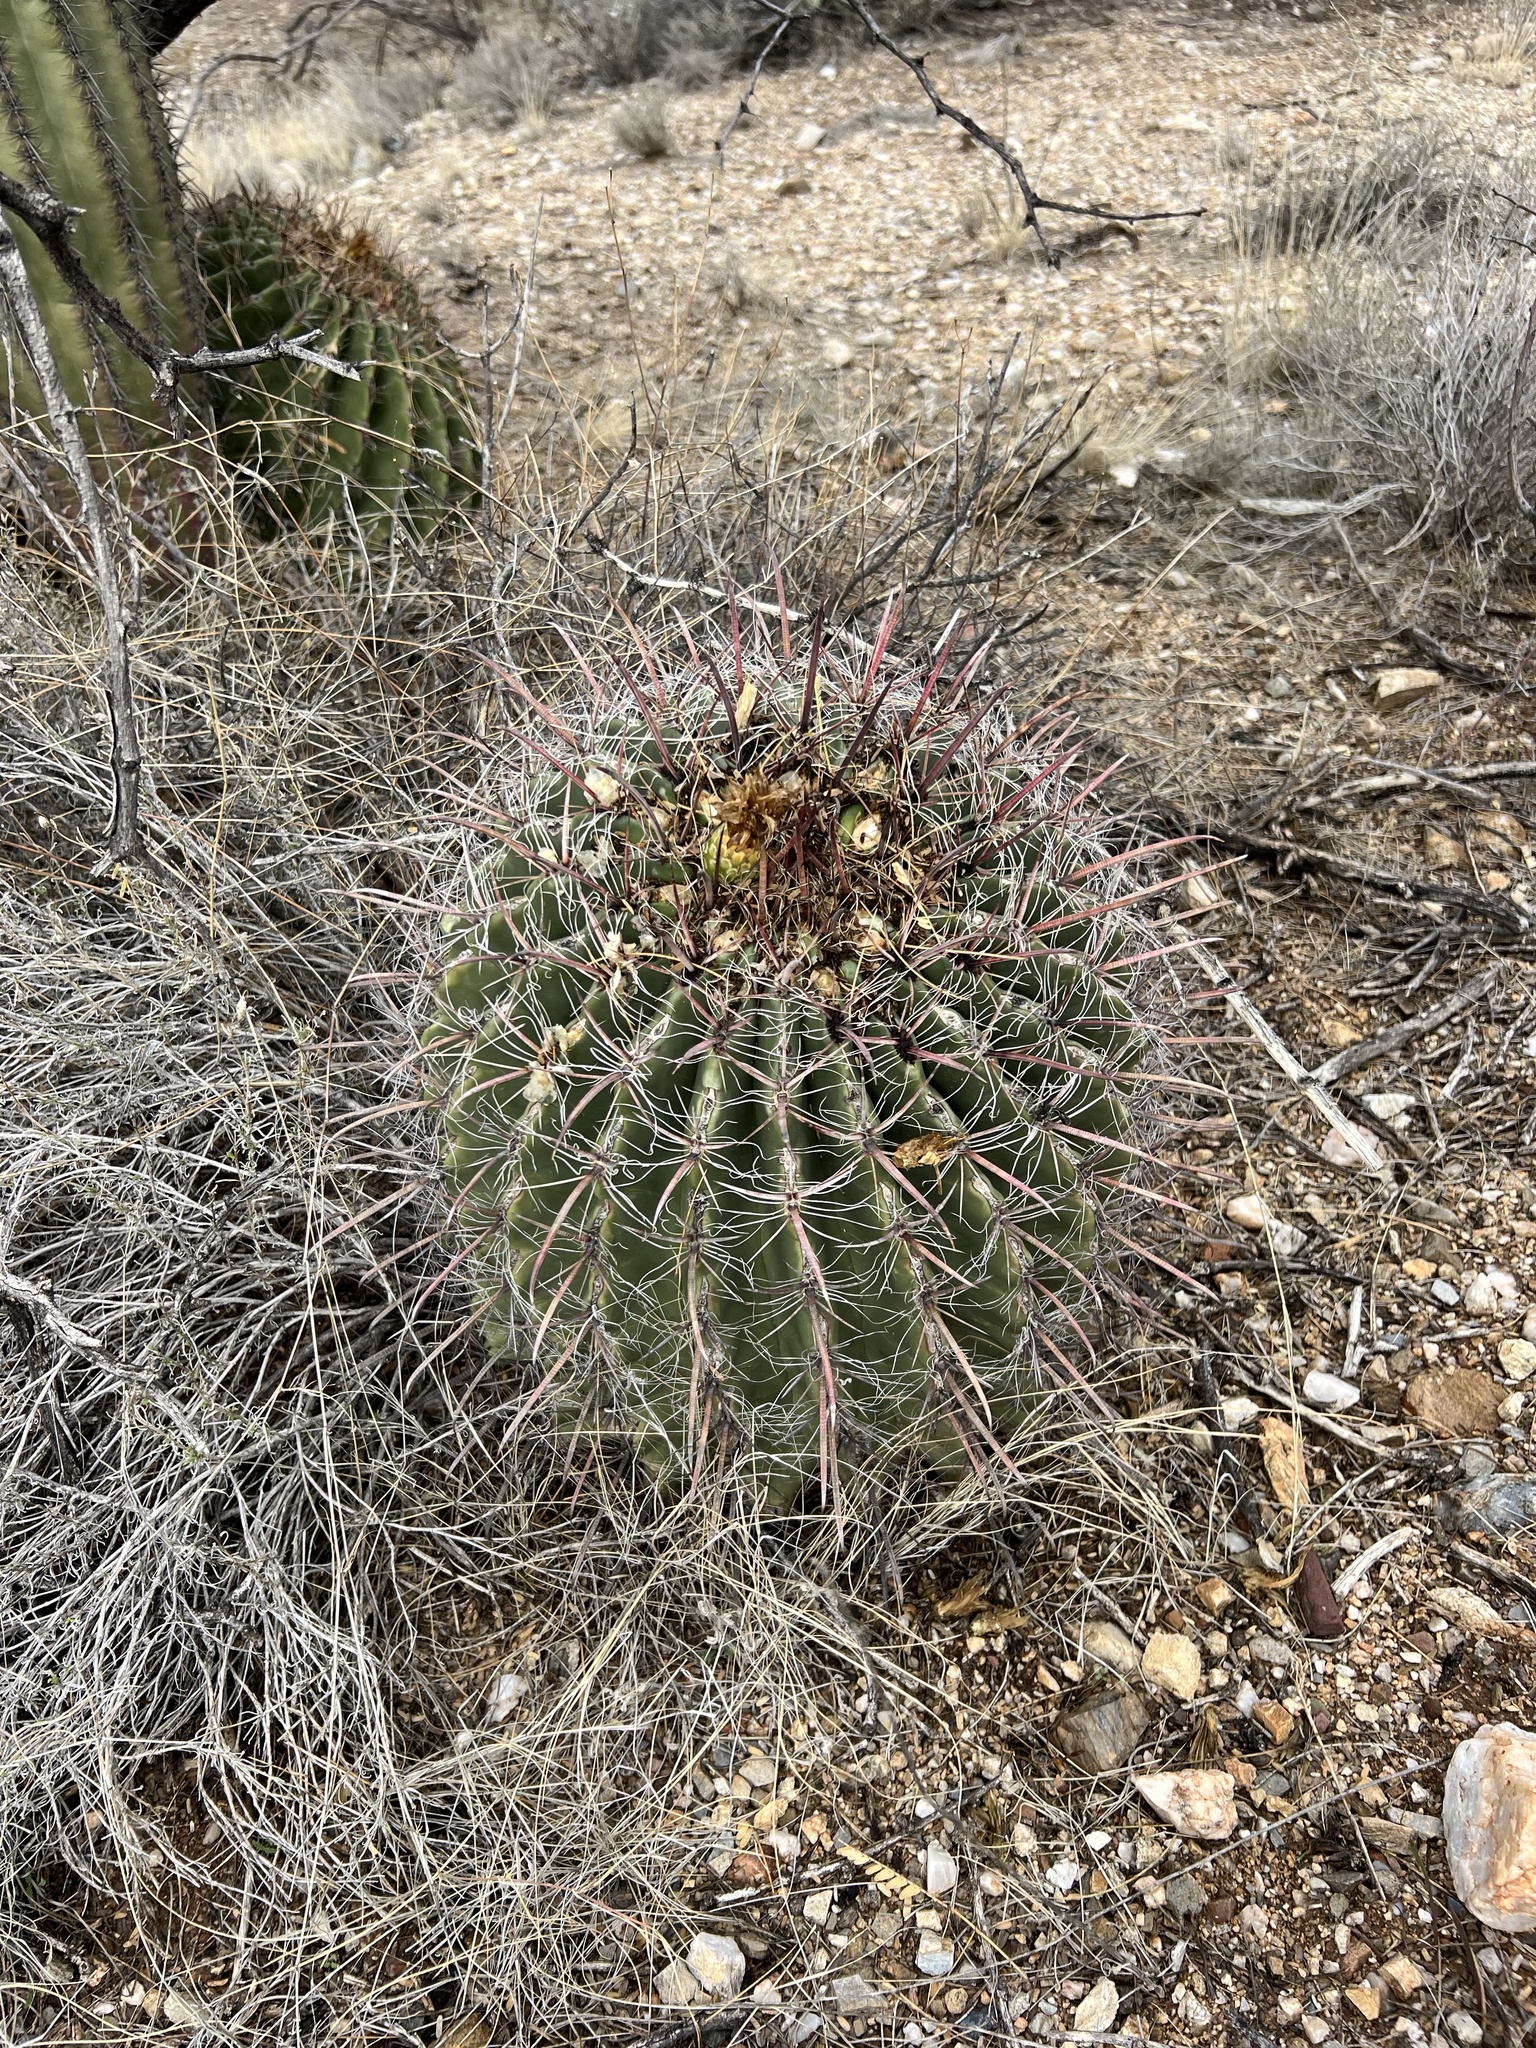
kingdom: Plantae
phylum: Tracheophyta
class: Magnoliopsida
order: Caryophyllales
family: Cactaceae
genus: Ferocactus
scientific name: Ferocactus wislizeni
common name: Candy barrel cactus
